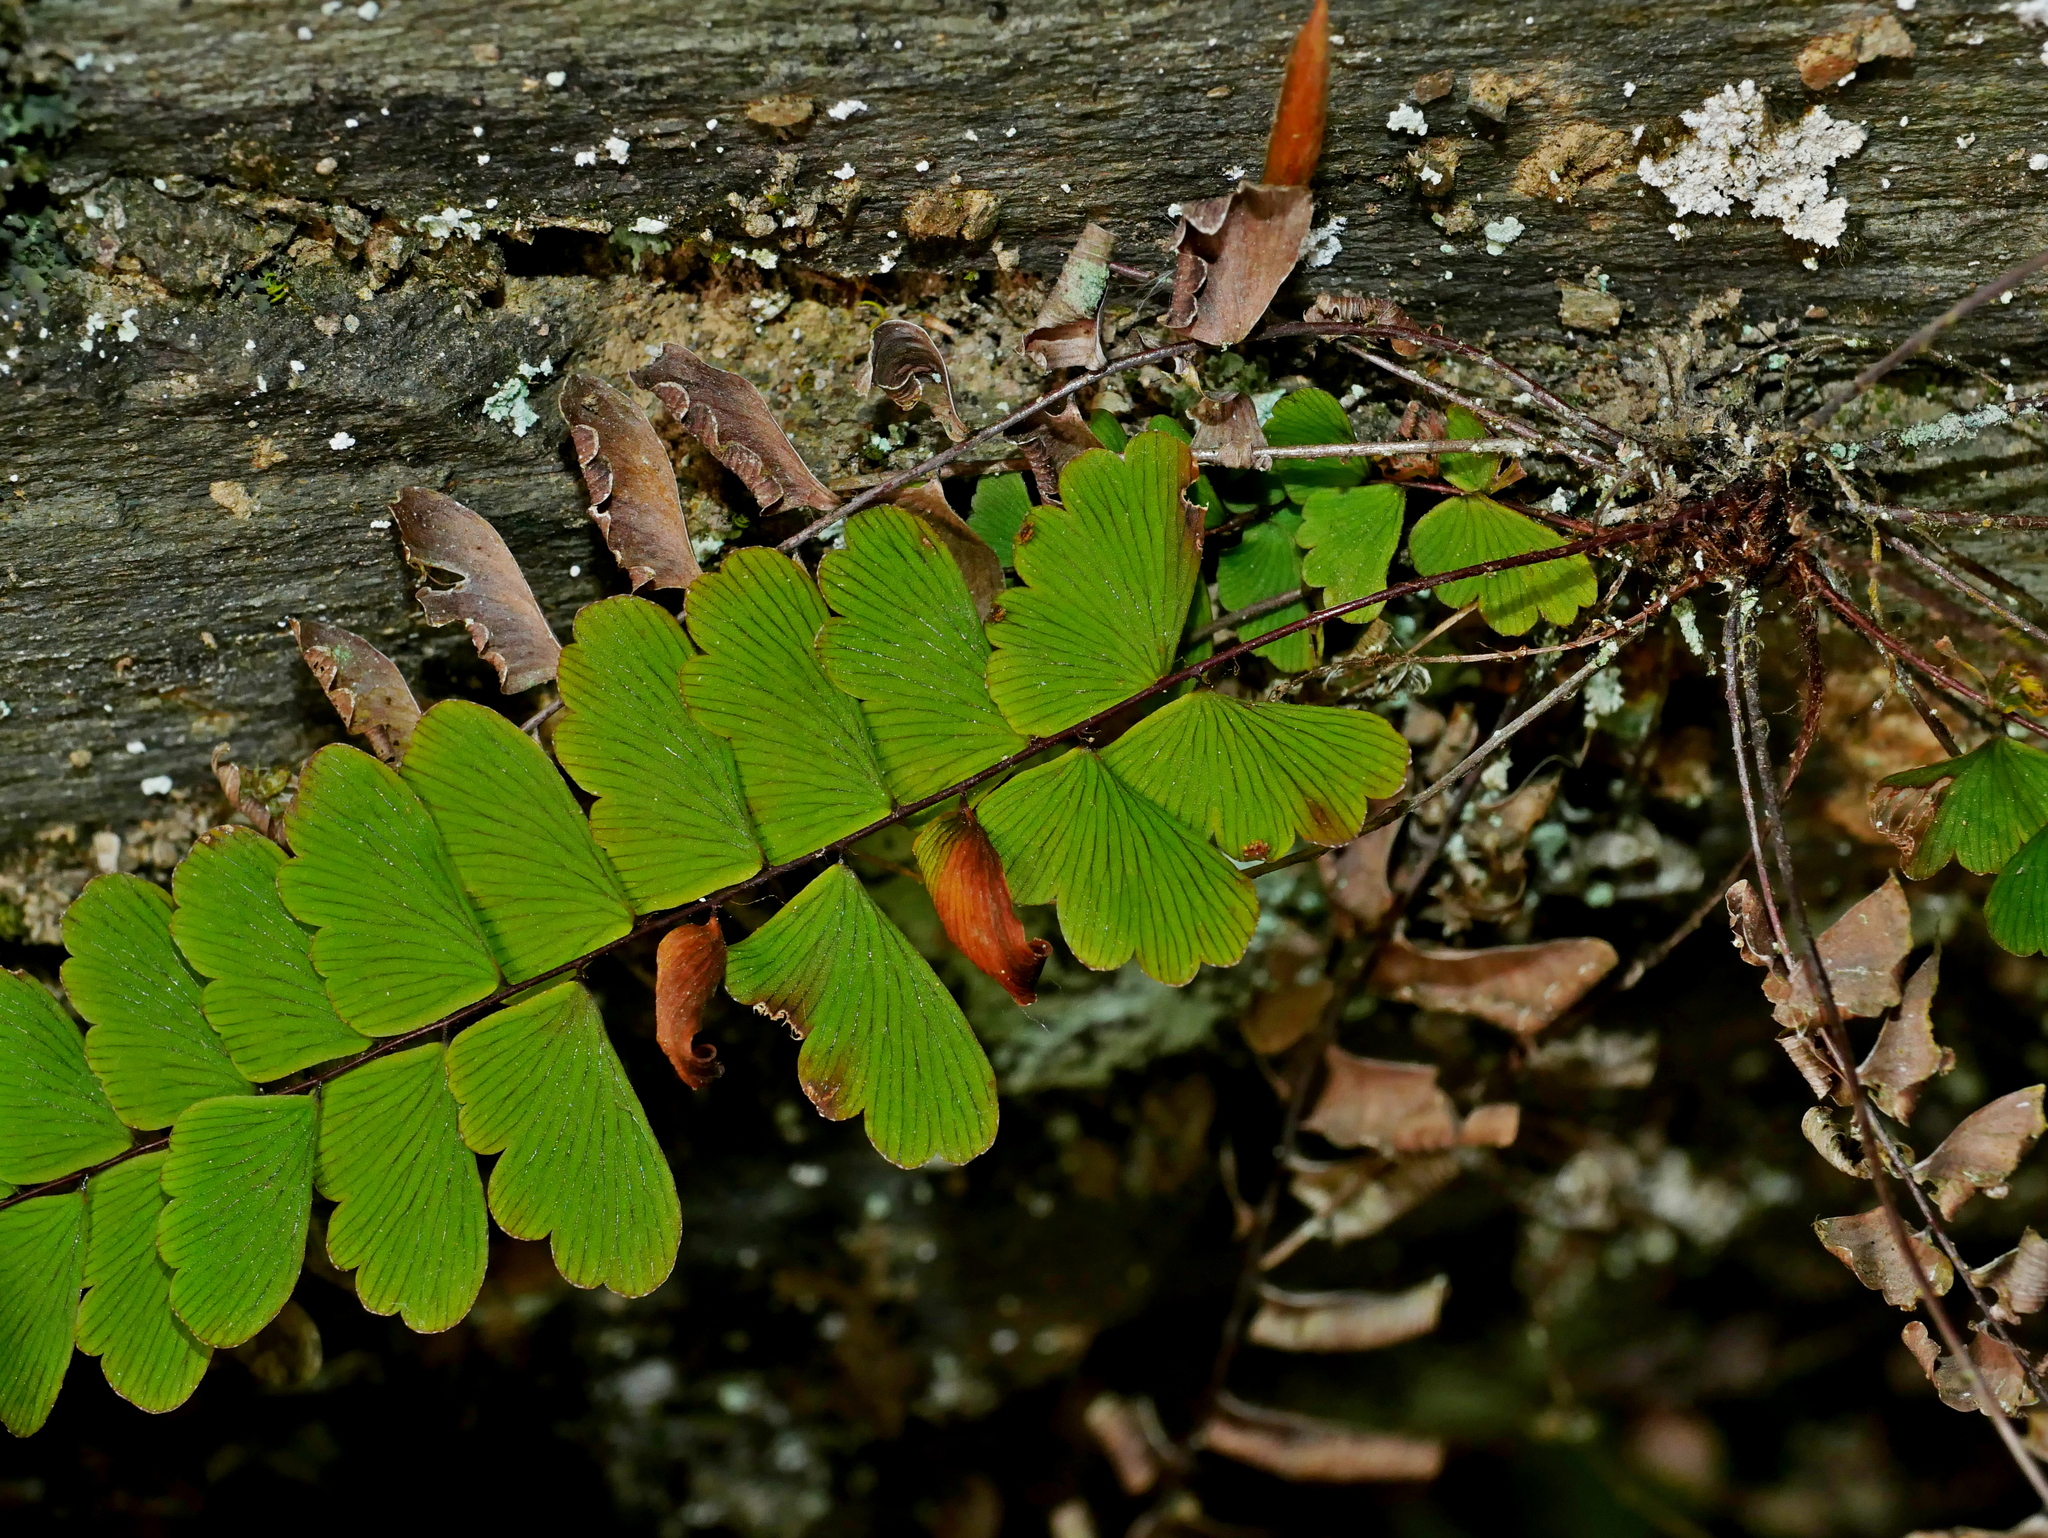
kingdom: Plantae
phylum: Tracheophyta
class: Polypodiopsida
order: Polypodiales
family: Pteridaceae
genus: Adiantum
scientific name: Adiantum edgeworthii
